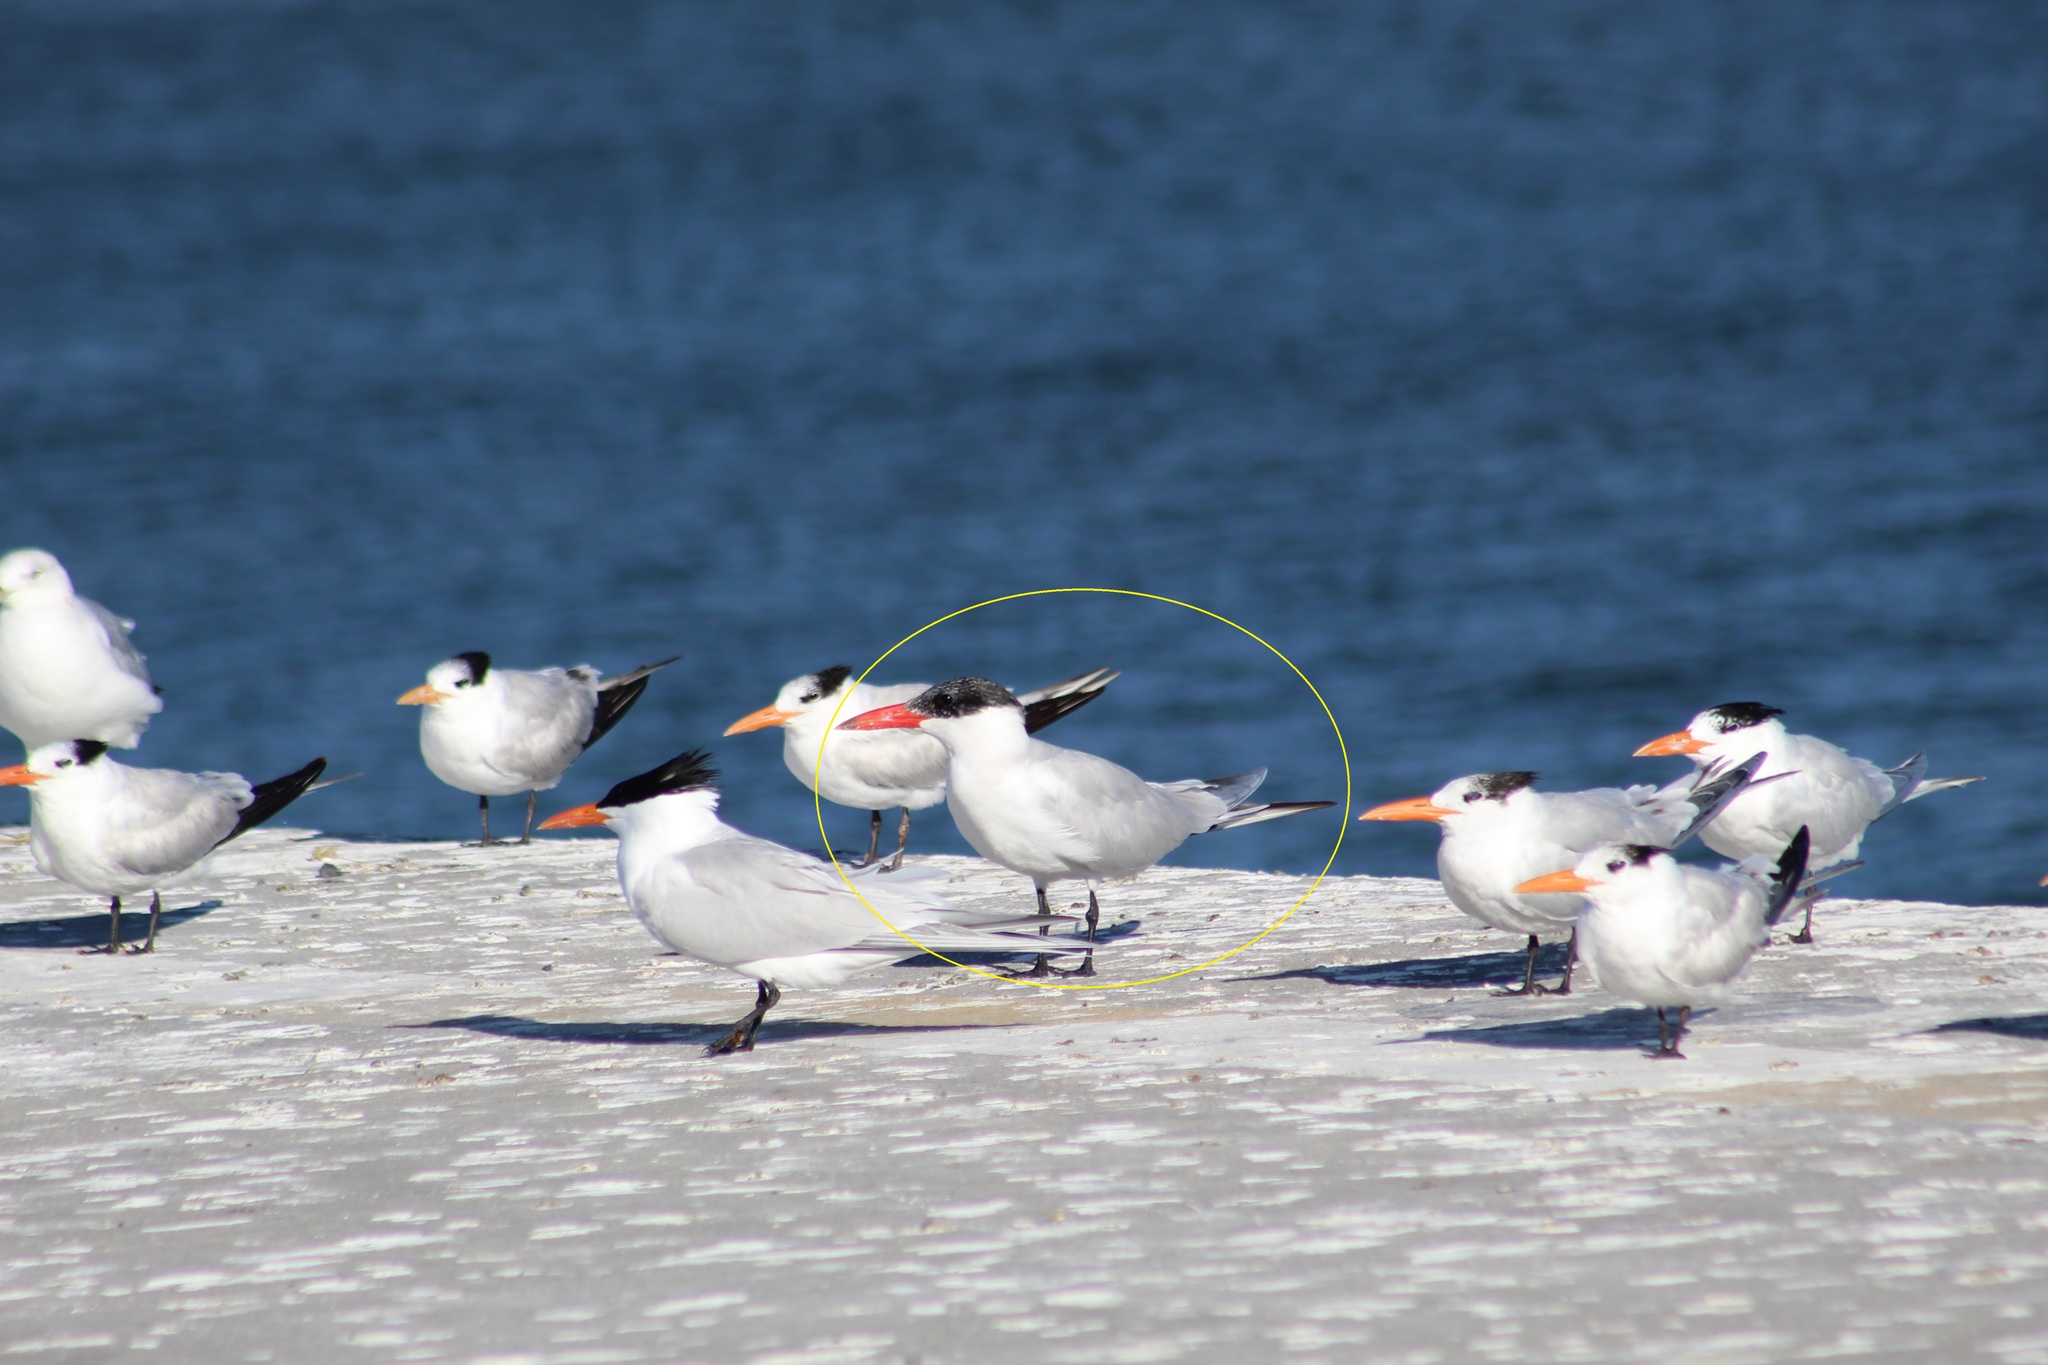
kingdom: Animalia
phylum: Chordata
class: Aves
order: Charadriiformes
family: Laridae
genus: Hydroprogne
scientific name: Hydroprogne caspia
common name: Caspian tern
